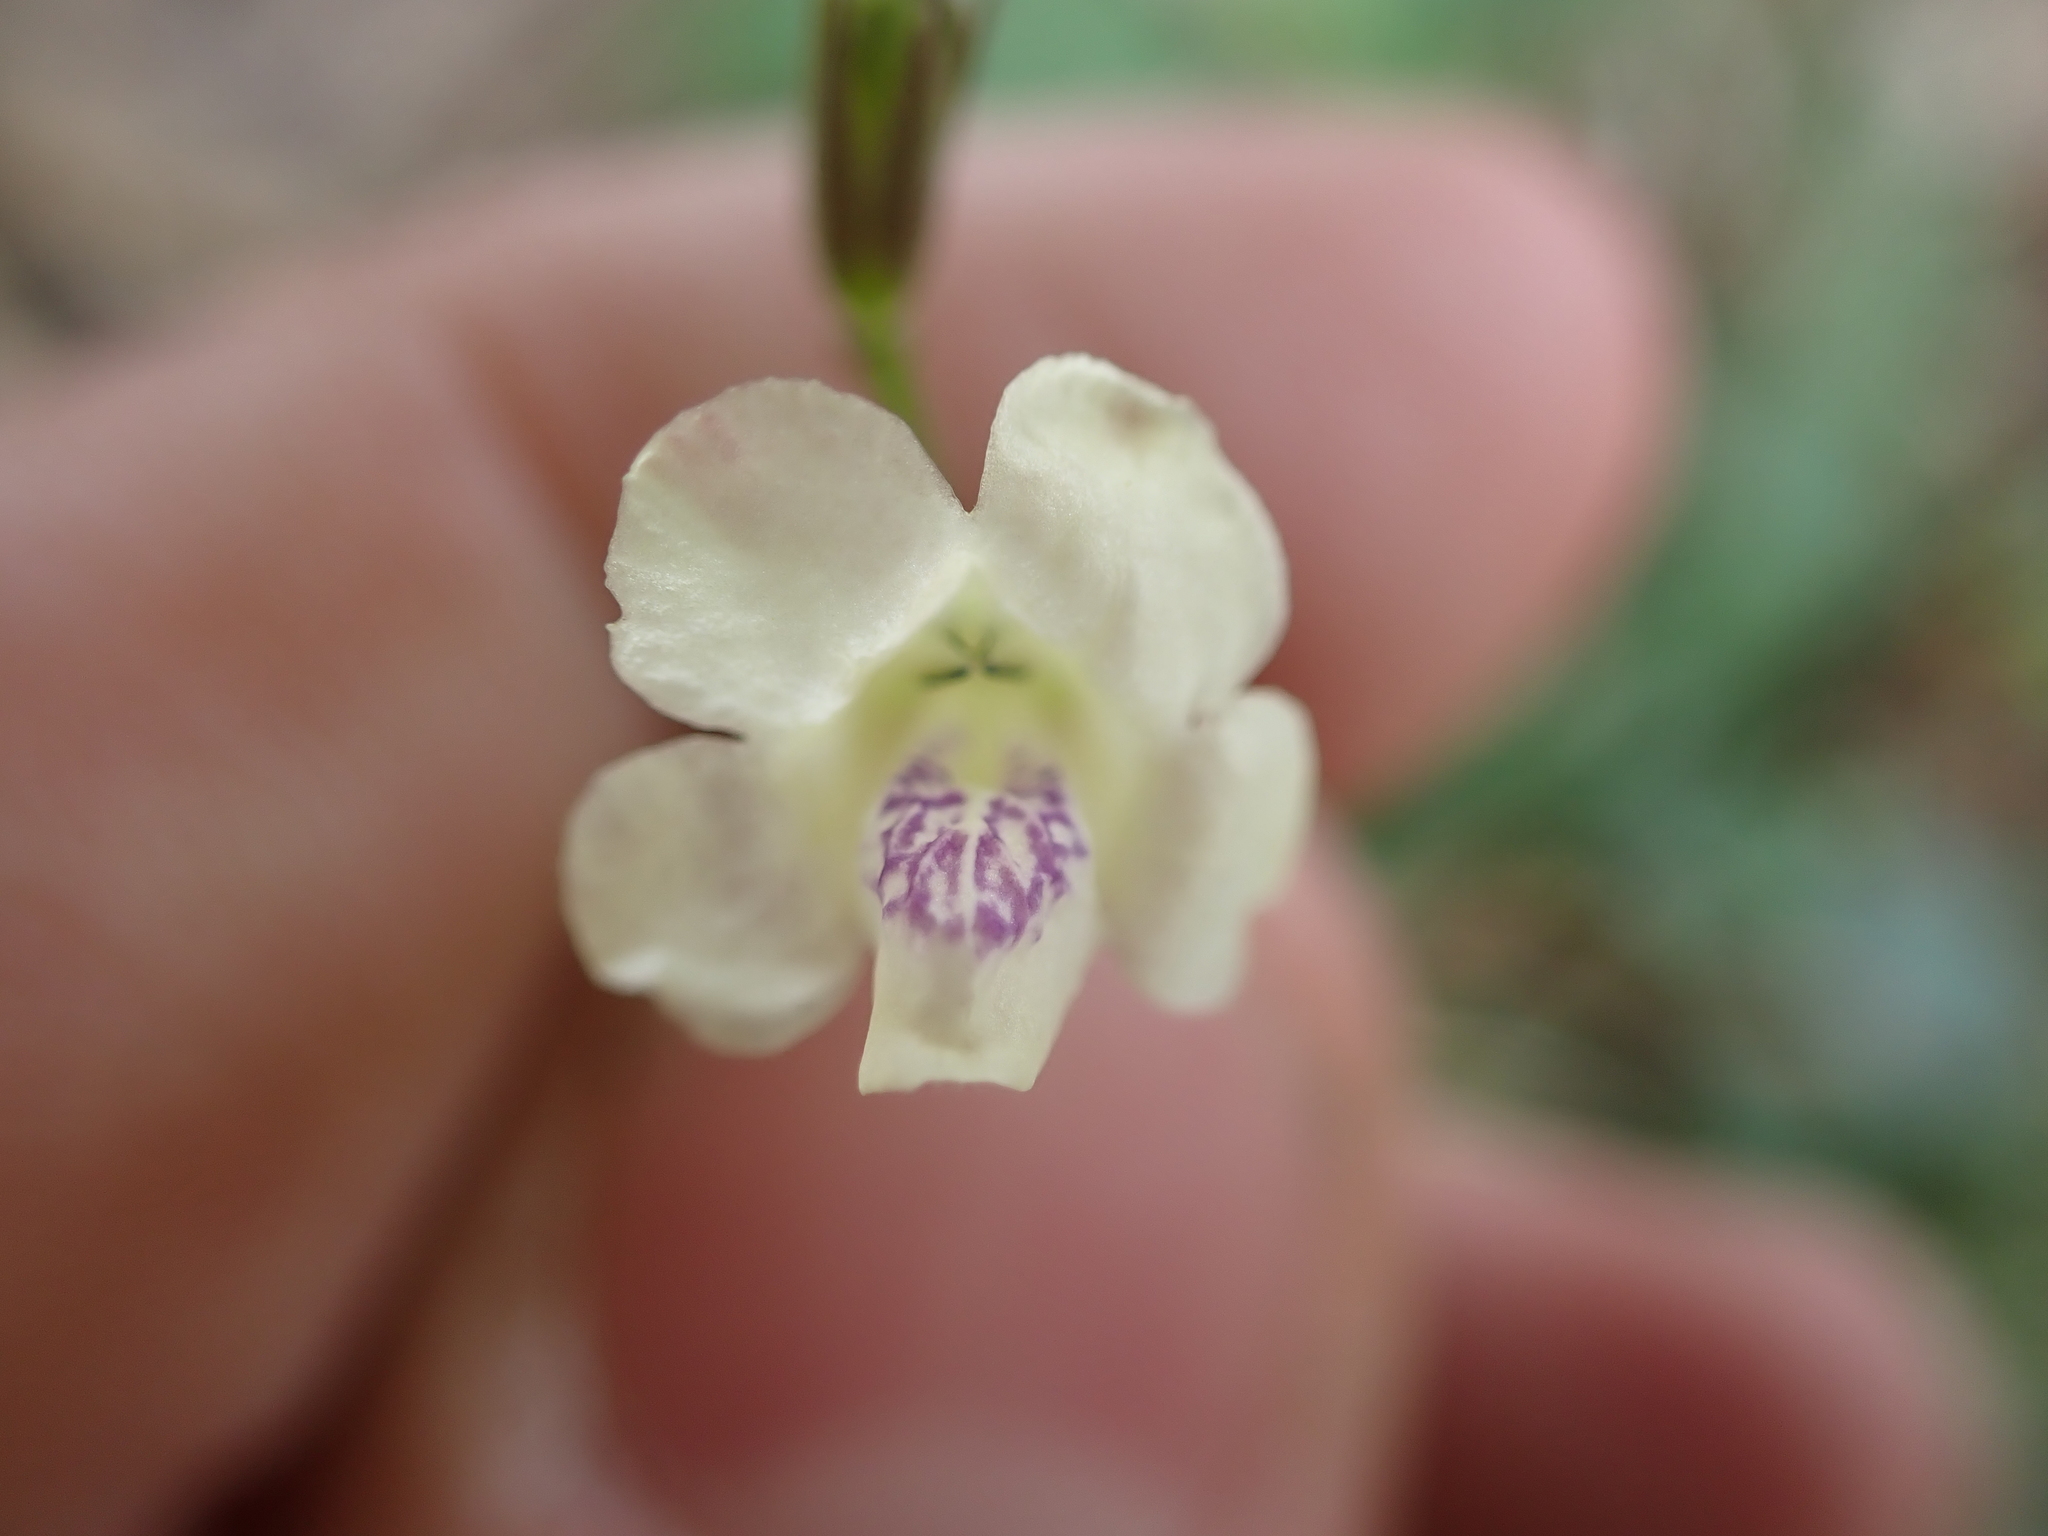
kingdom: Plantae
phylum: Tracheophyta
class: Magnoliopsida
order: Lamiales
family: Acanthaceae
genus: Asystasia
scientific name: Asystasia intrusa
